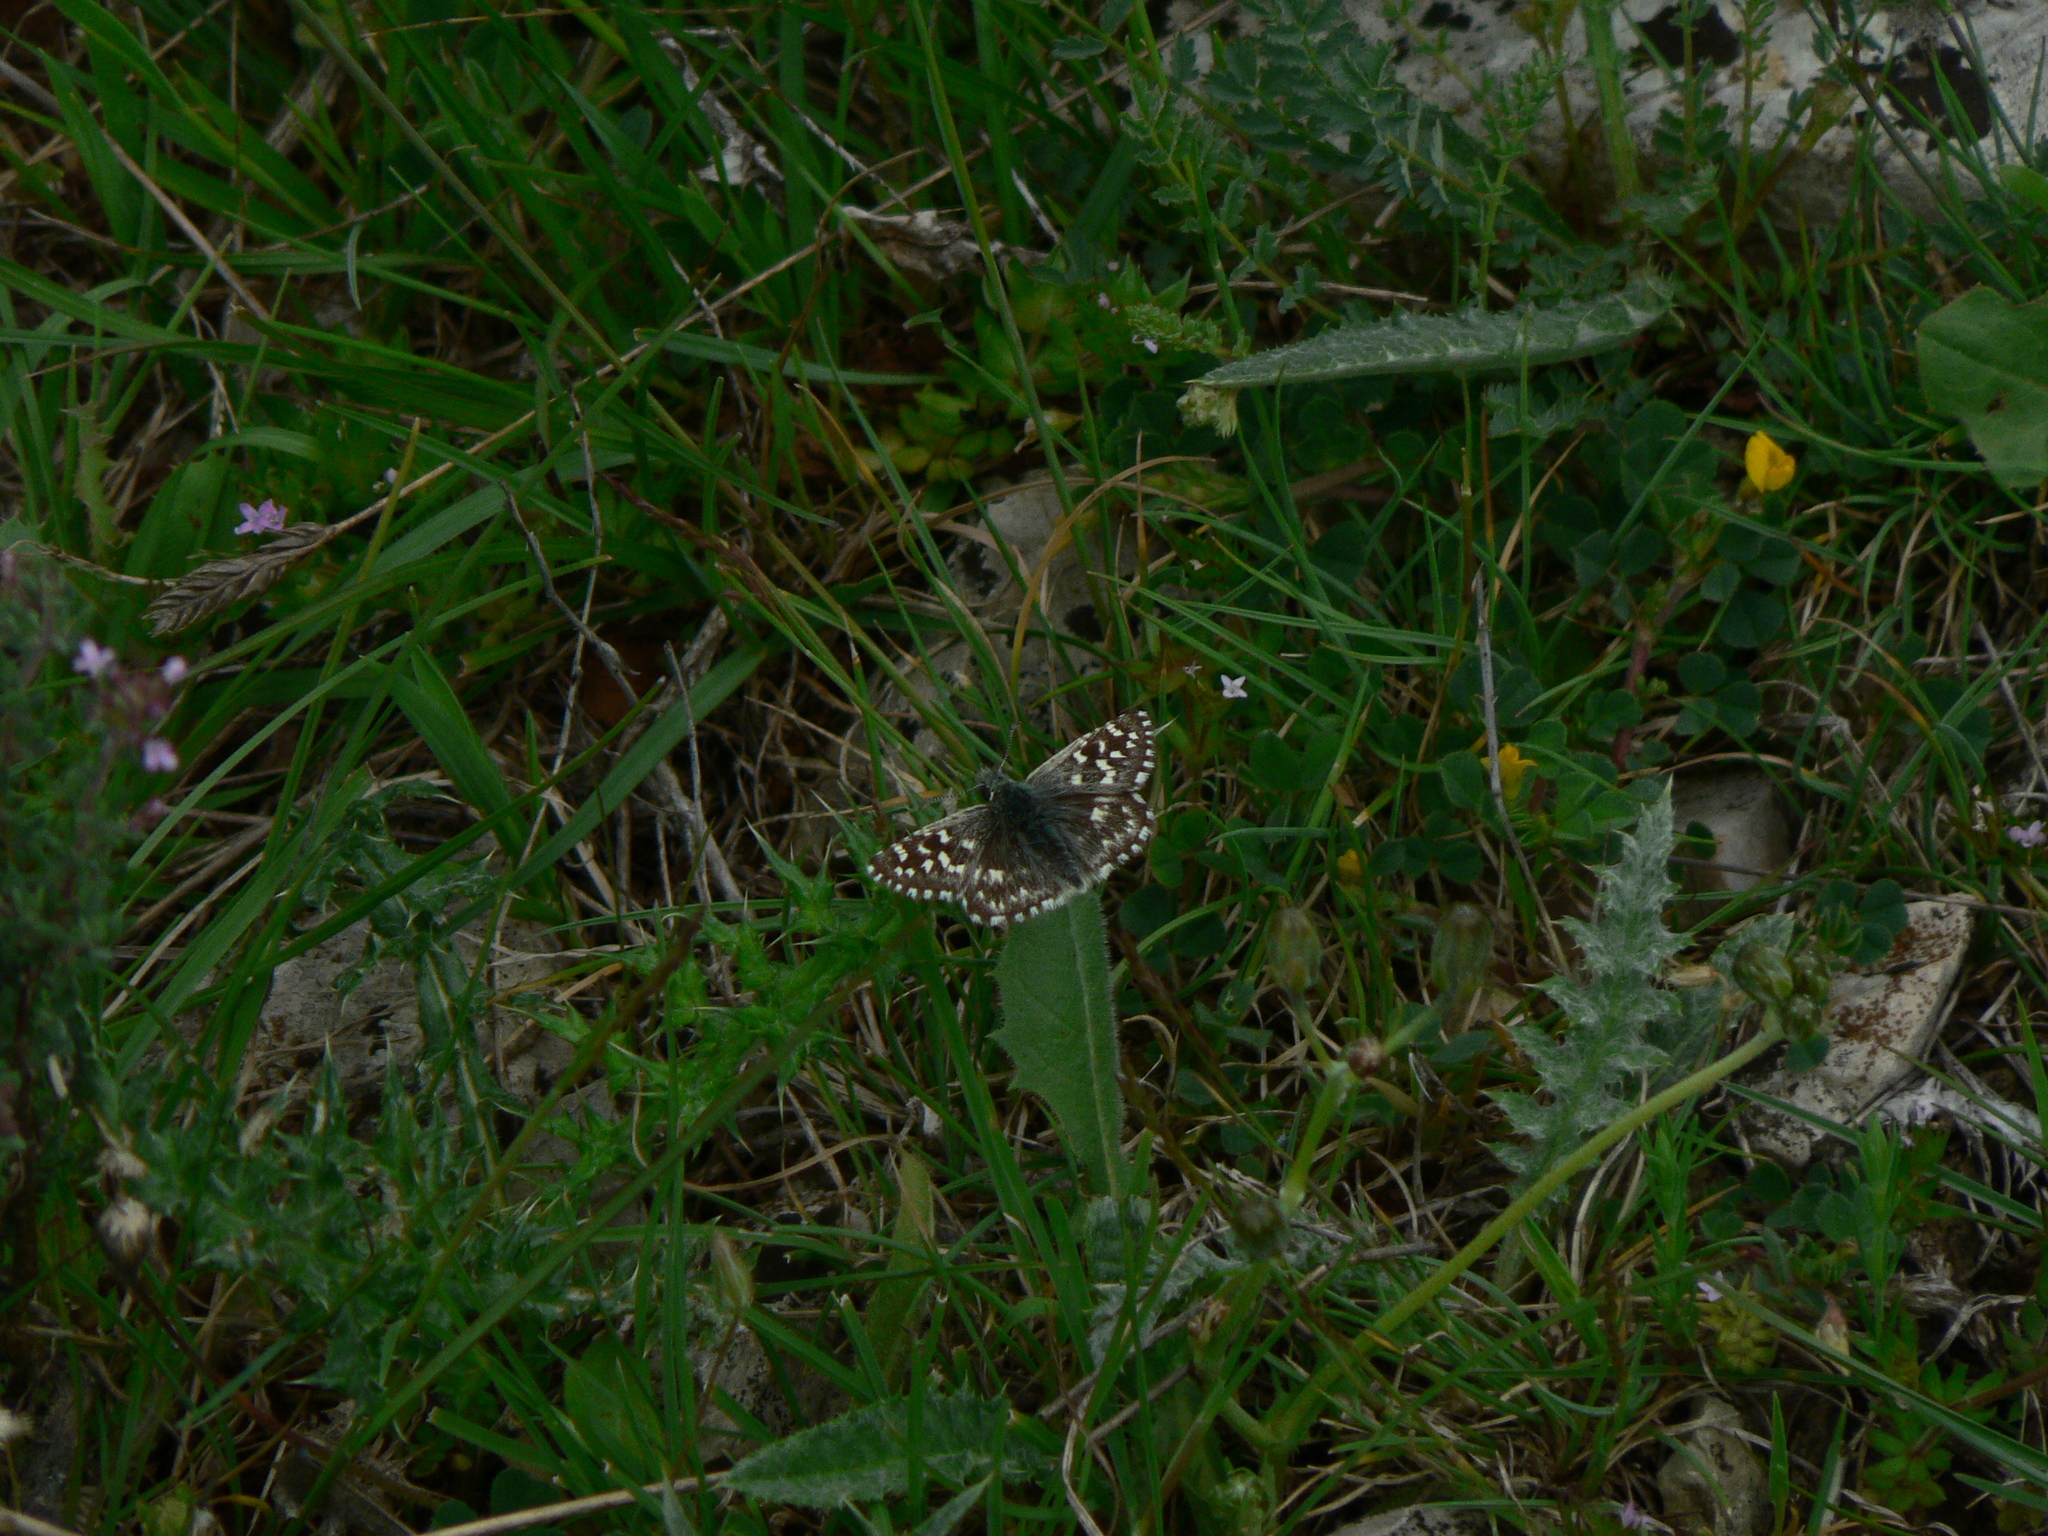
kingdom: Animalia
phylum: Arthropoda
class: Insecta
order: Lepidoptera
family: Hesperiidae
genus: Pyrgus
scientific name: Pyrgus malvoides
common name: Southern grizzled skipper
